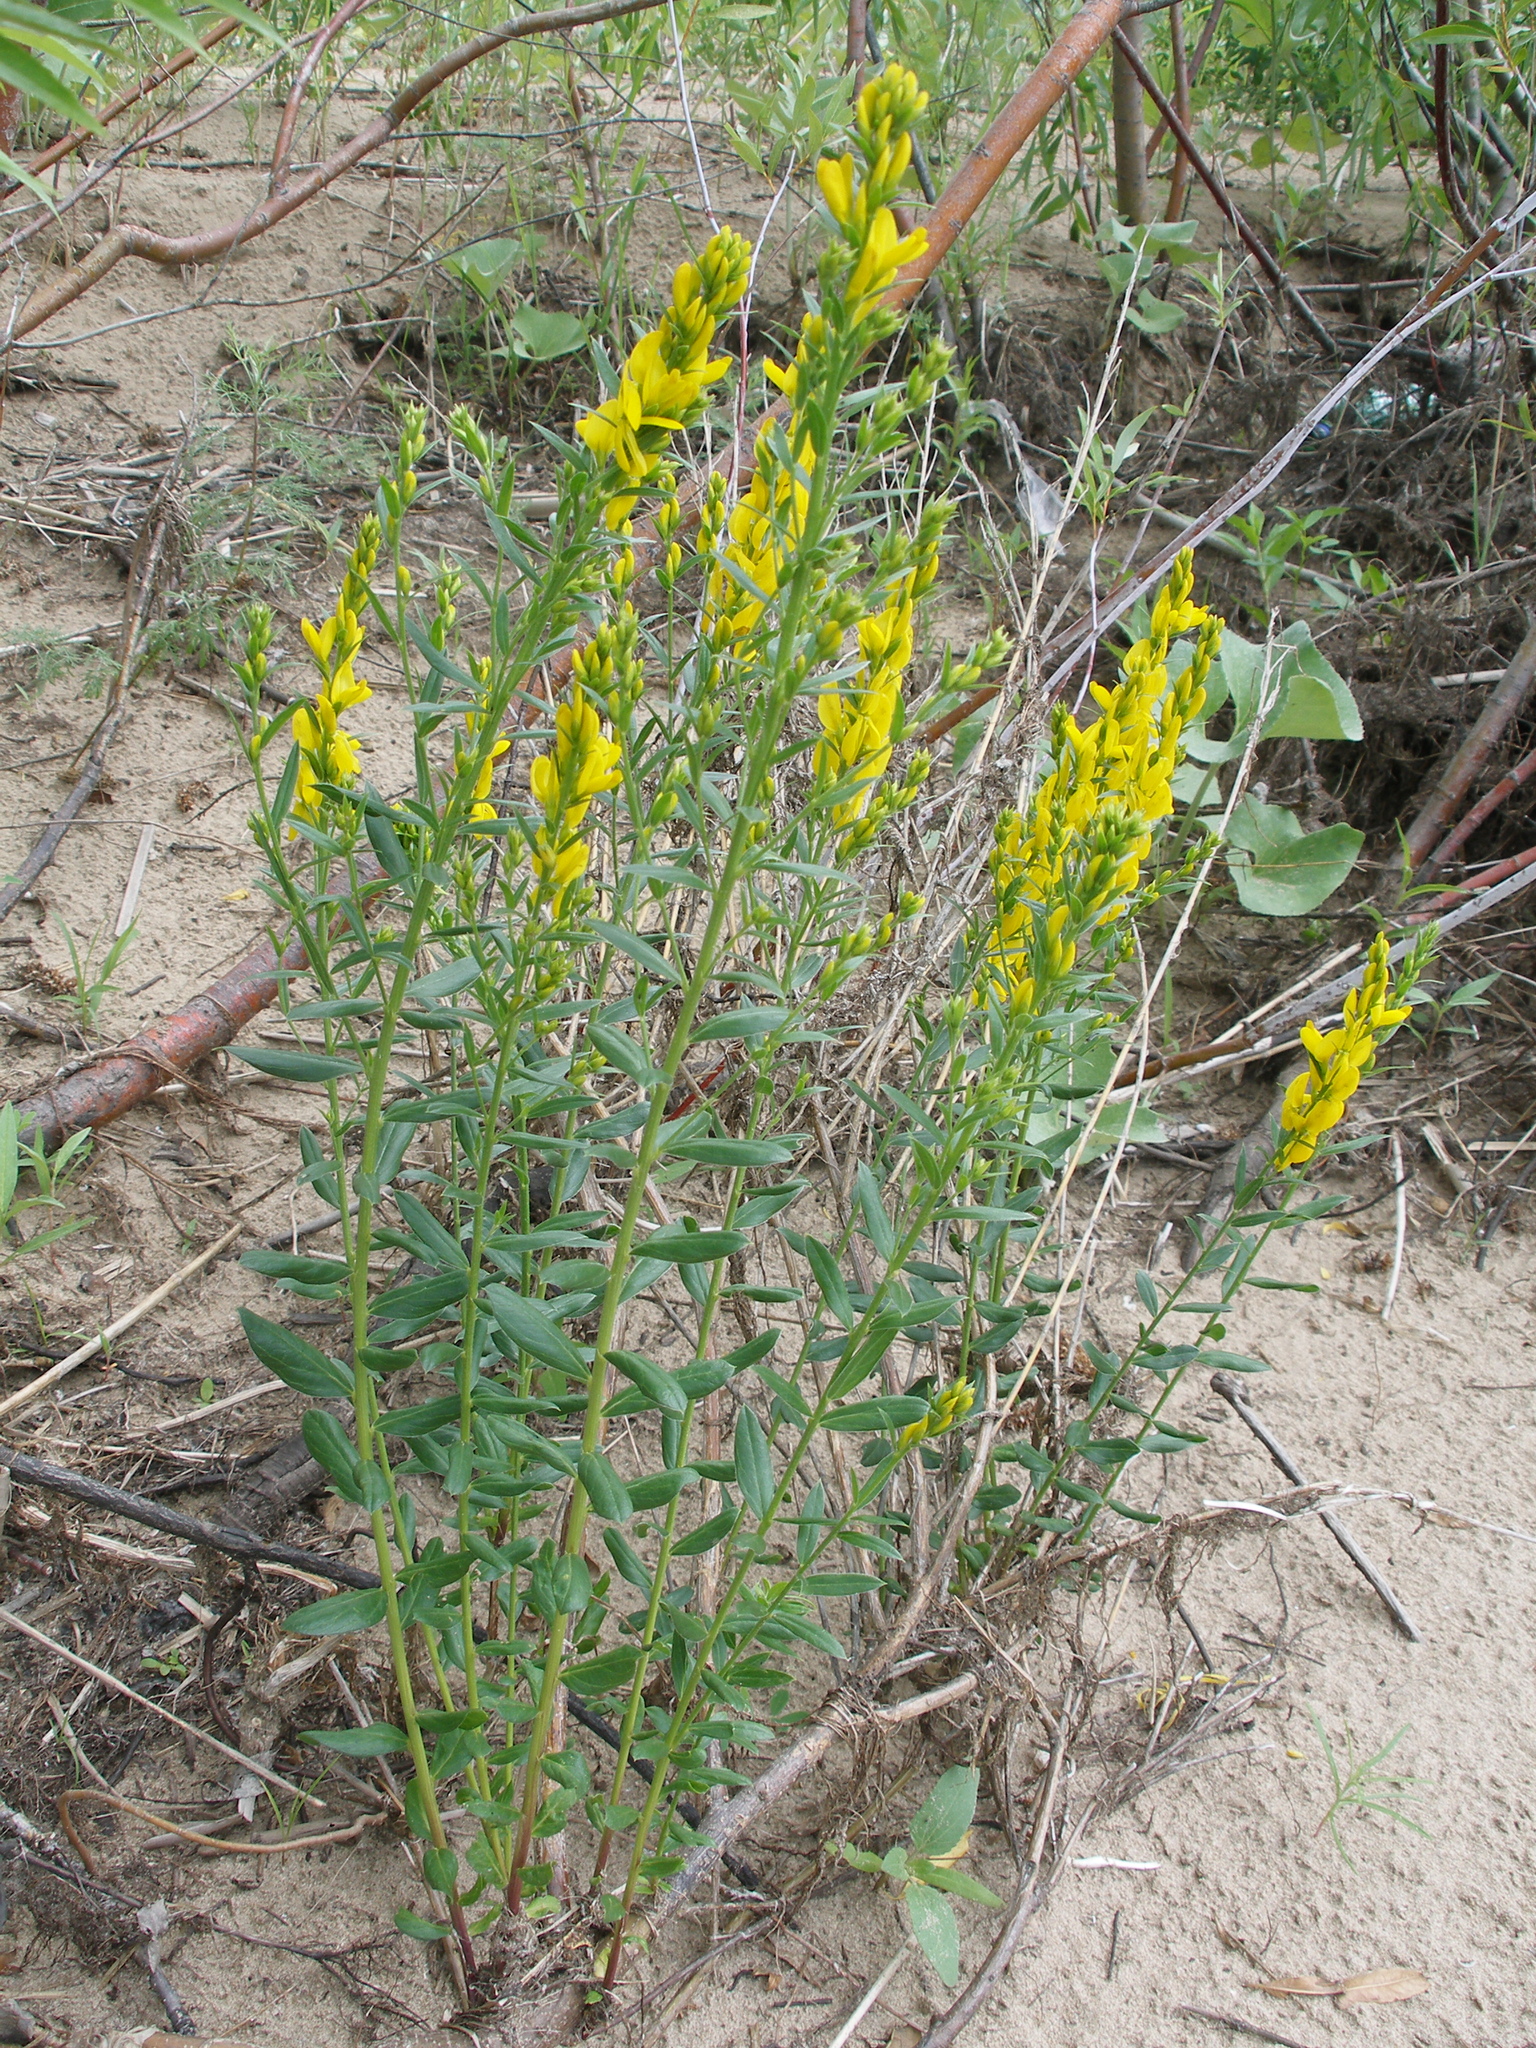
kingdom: Plantae
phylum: Tracheophyta
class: Magnoliopsida
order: Fabales
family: Fabaceae
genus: Genista
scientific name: Genista tinctoria
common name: Dyer's greenweed
